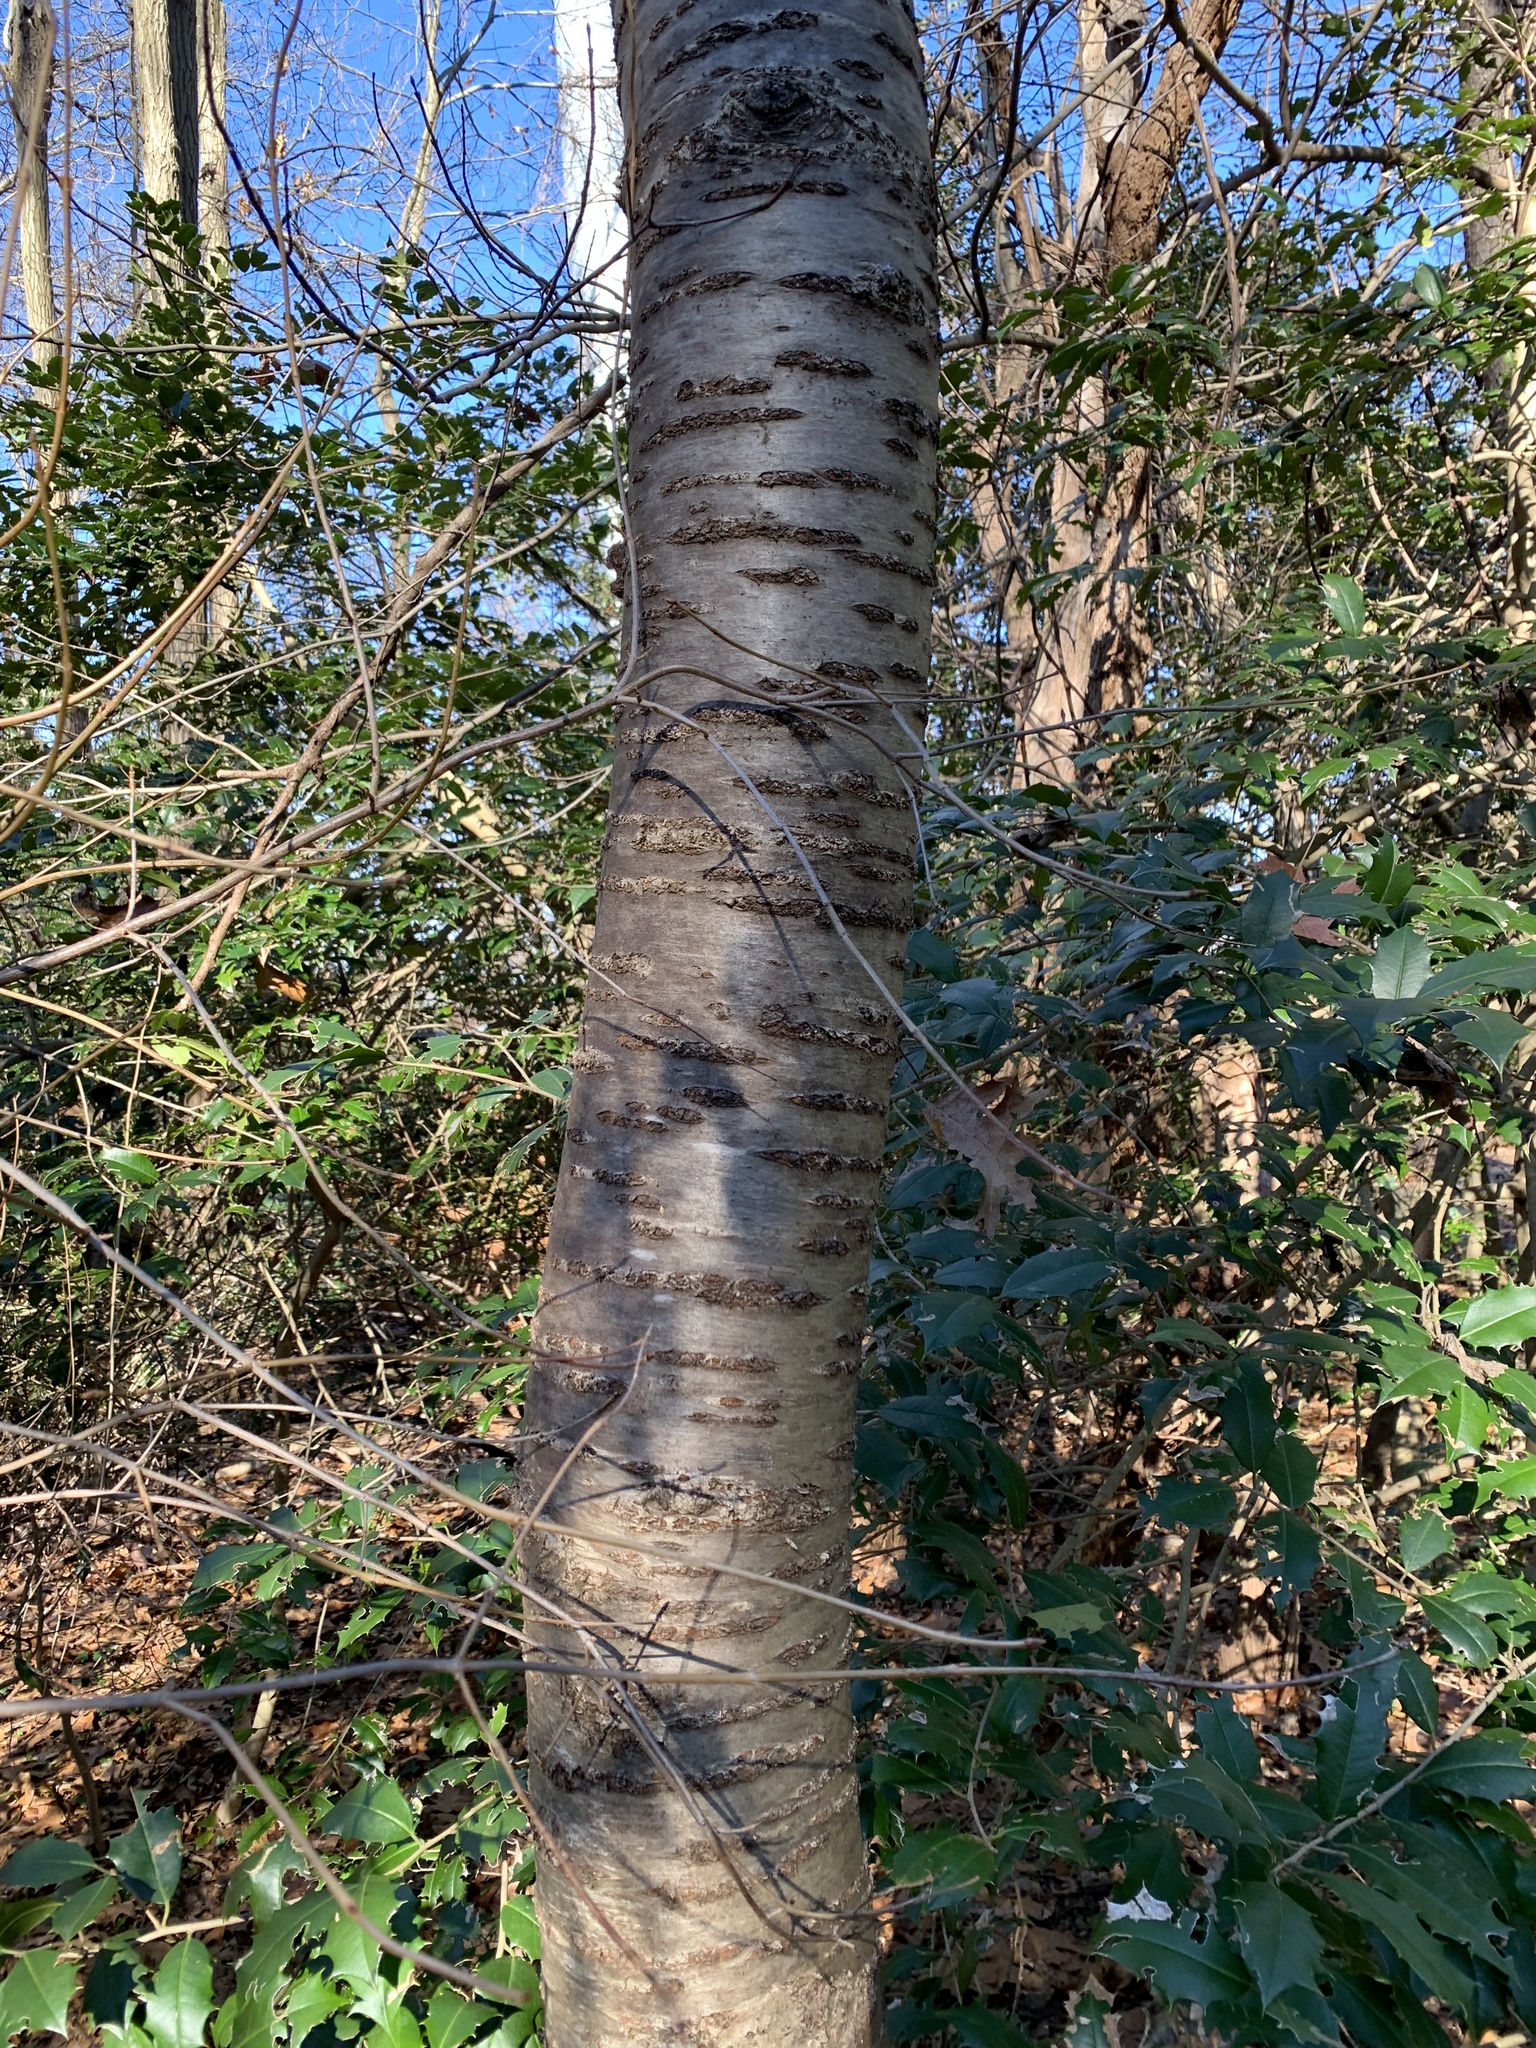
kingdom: Plantae
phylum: Tracheophyta
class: Magnoliopsida
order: Rosales
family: Rosaceae
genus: Prunus
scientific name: Prunus avium
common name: Sweet cherry
